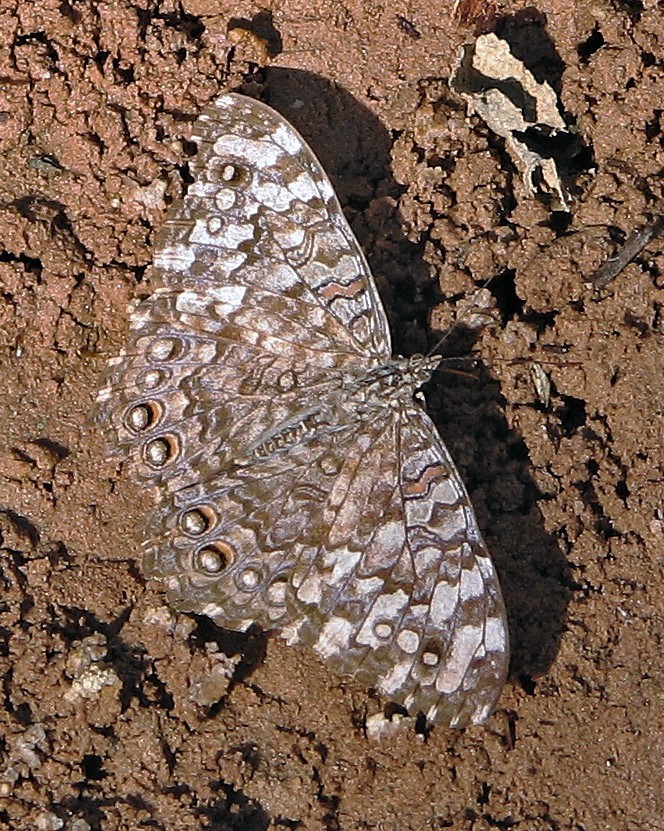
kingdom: Animalia
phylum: Arthropoda
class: Insecta
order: Lepidoptera
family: Nymphalidae
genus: Hamadryas
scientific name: Hamadryas februa
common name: Gray cracker
